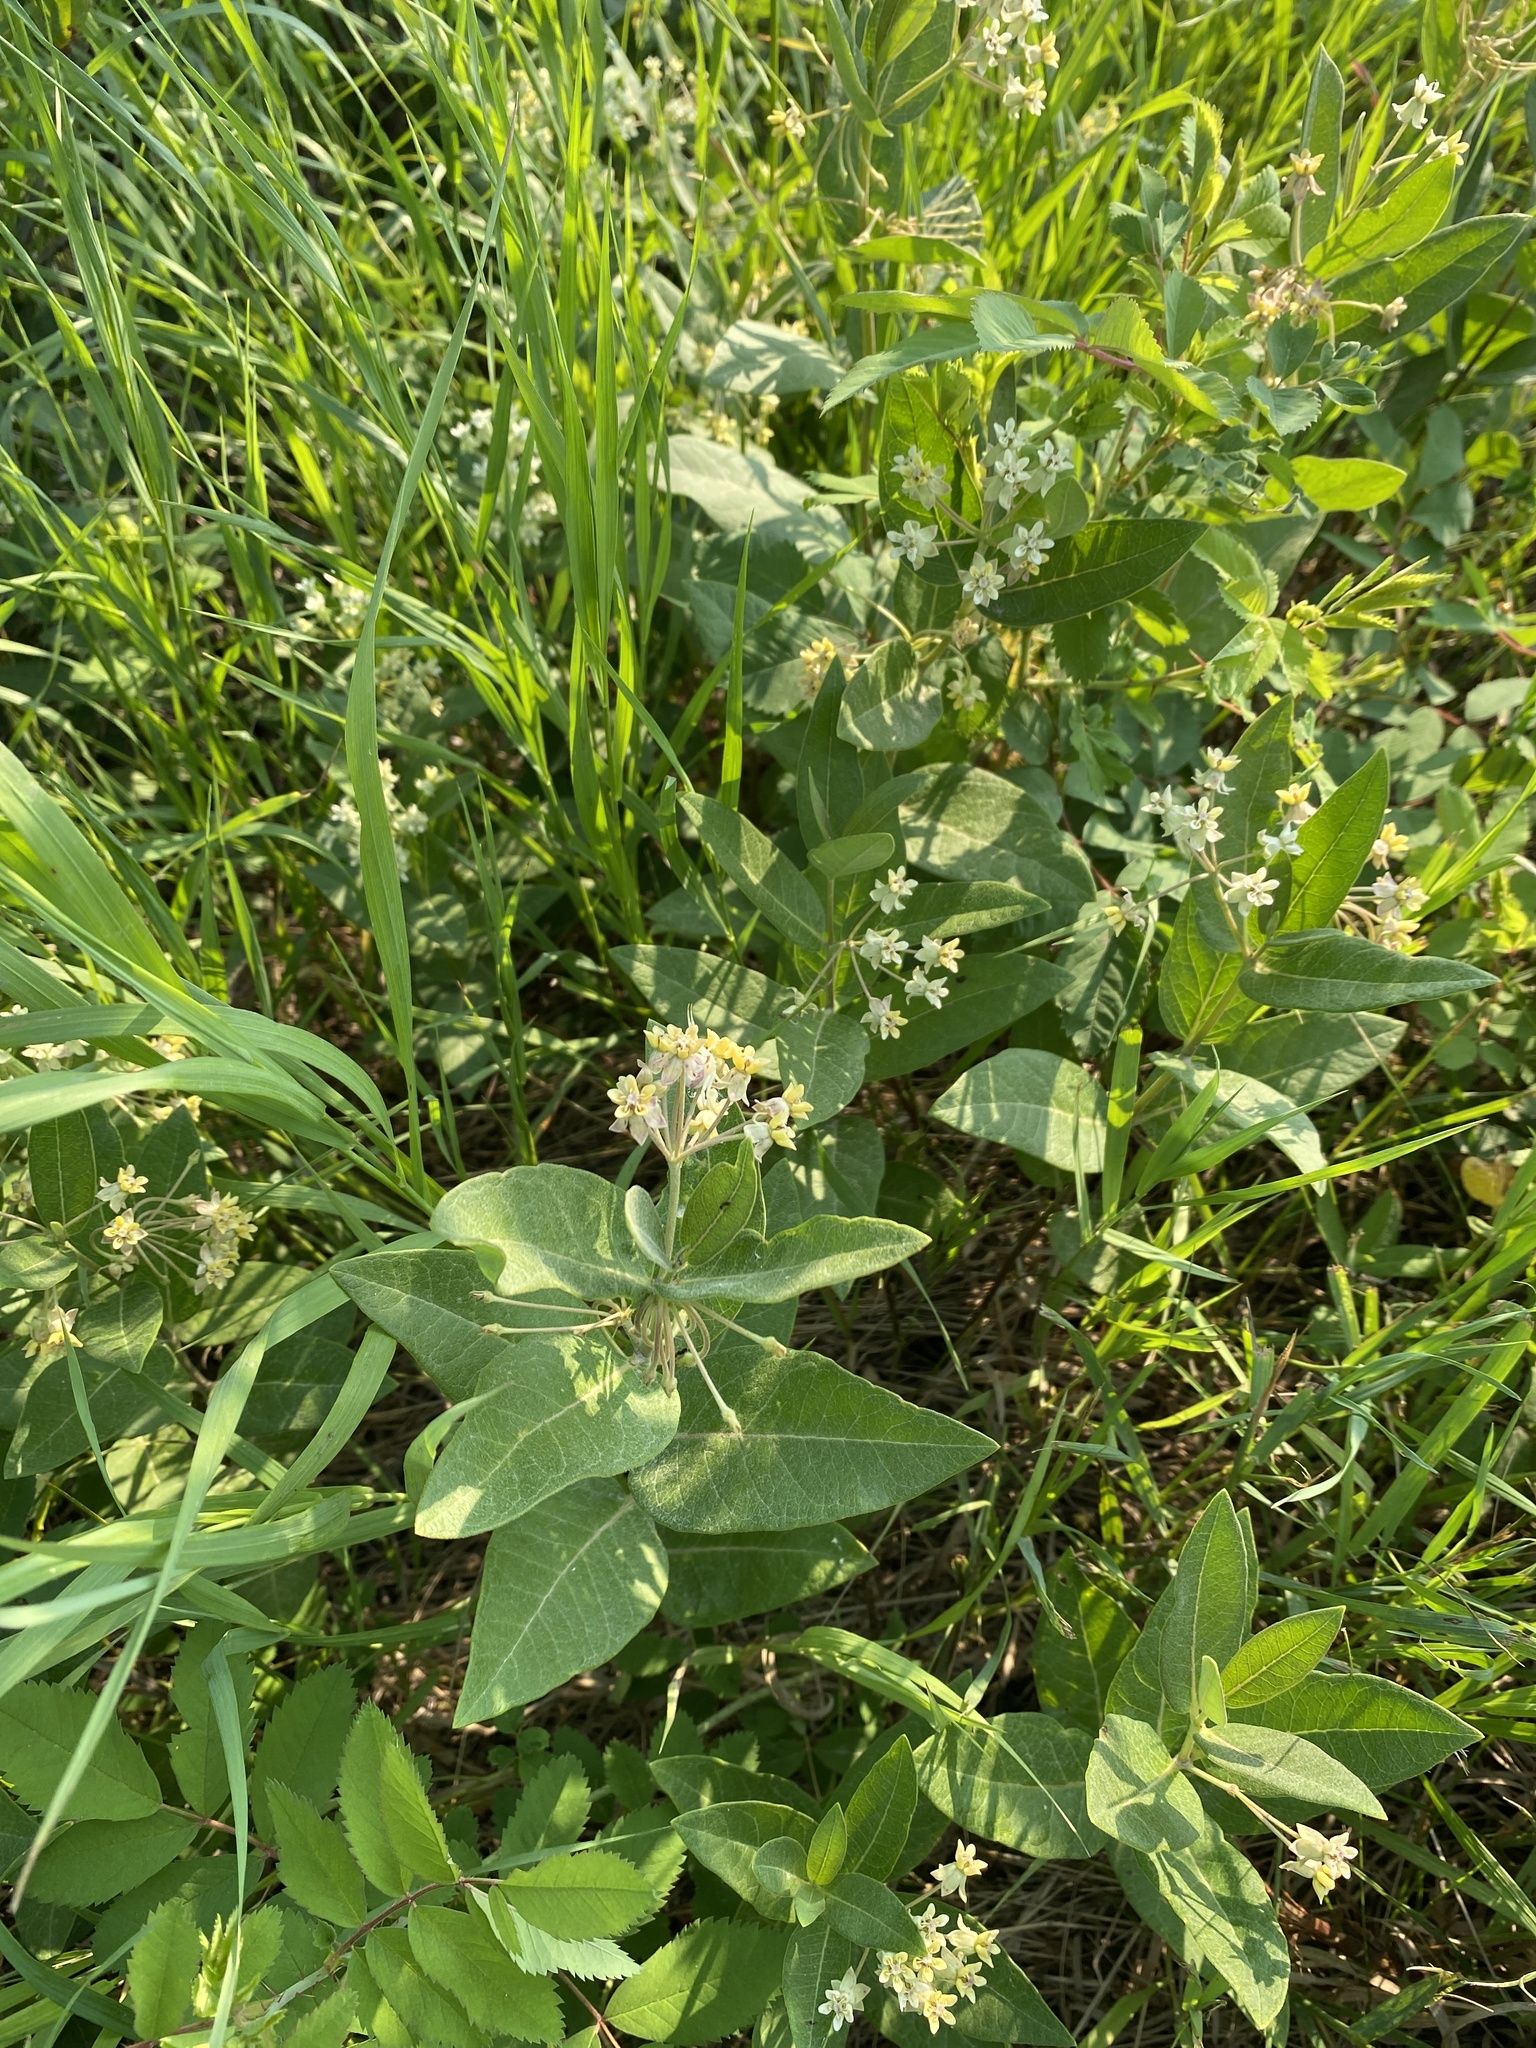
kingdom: Plantae
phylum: Tracheophyta
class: Magnoliopsida
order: Gentianales
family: Apocynaceae
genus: Asclepias
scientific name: Asclepias ovalifolia
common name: Dwarf milkweed
